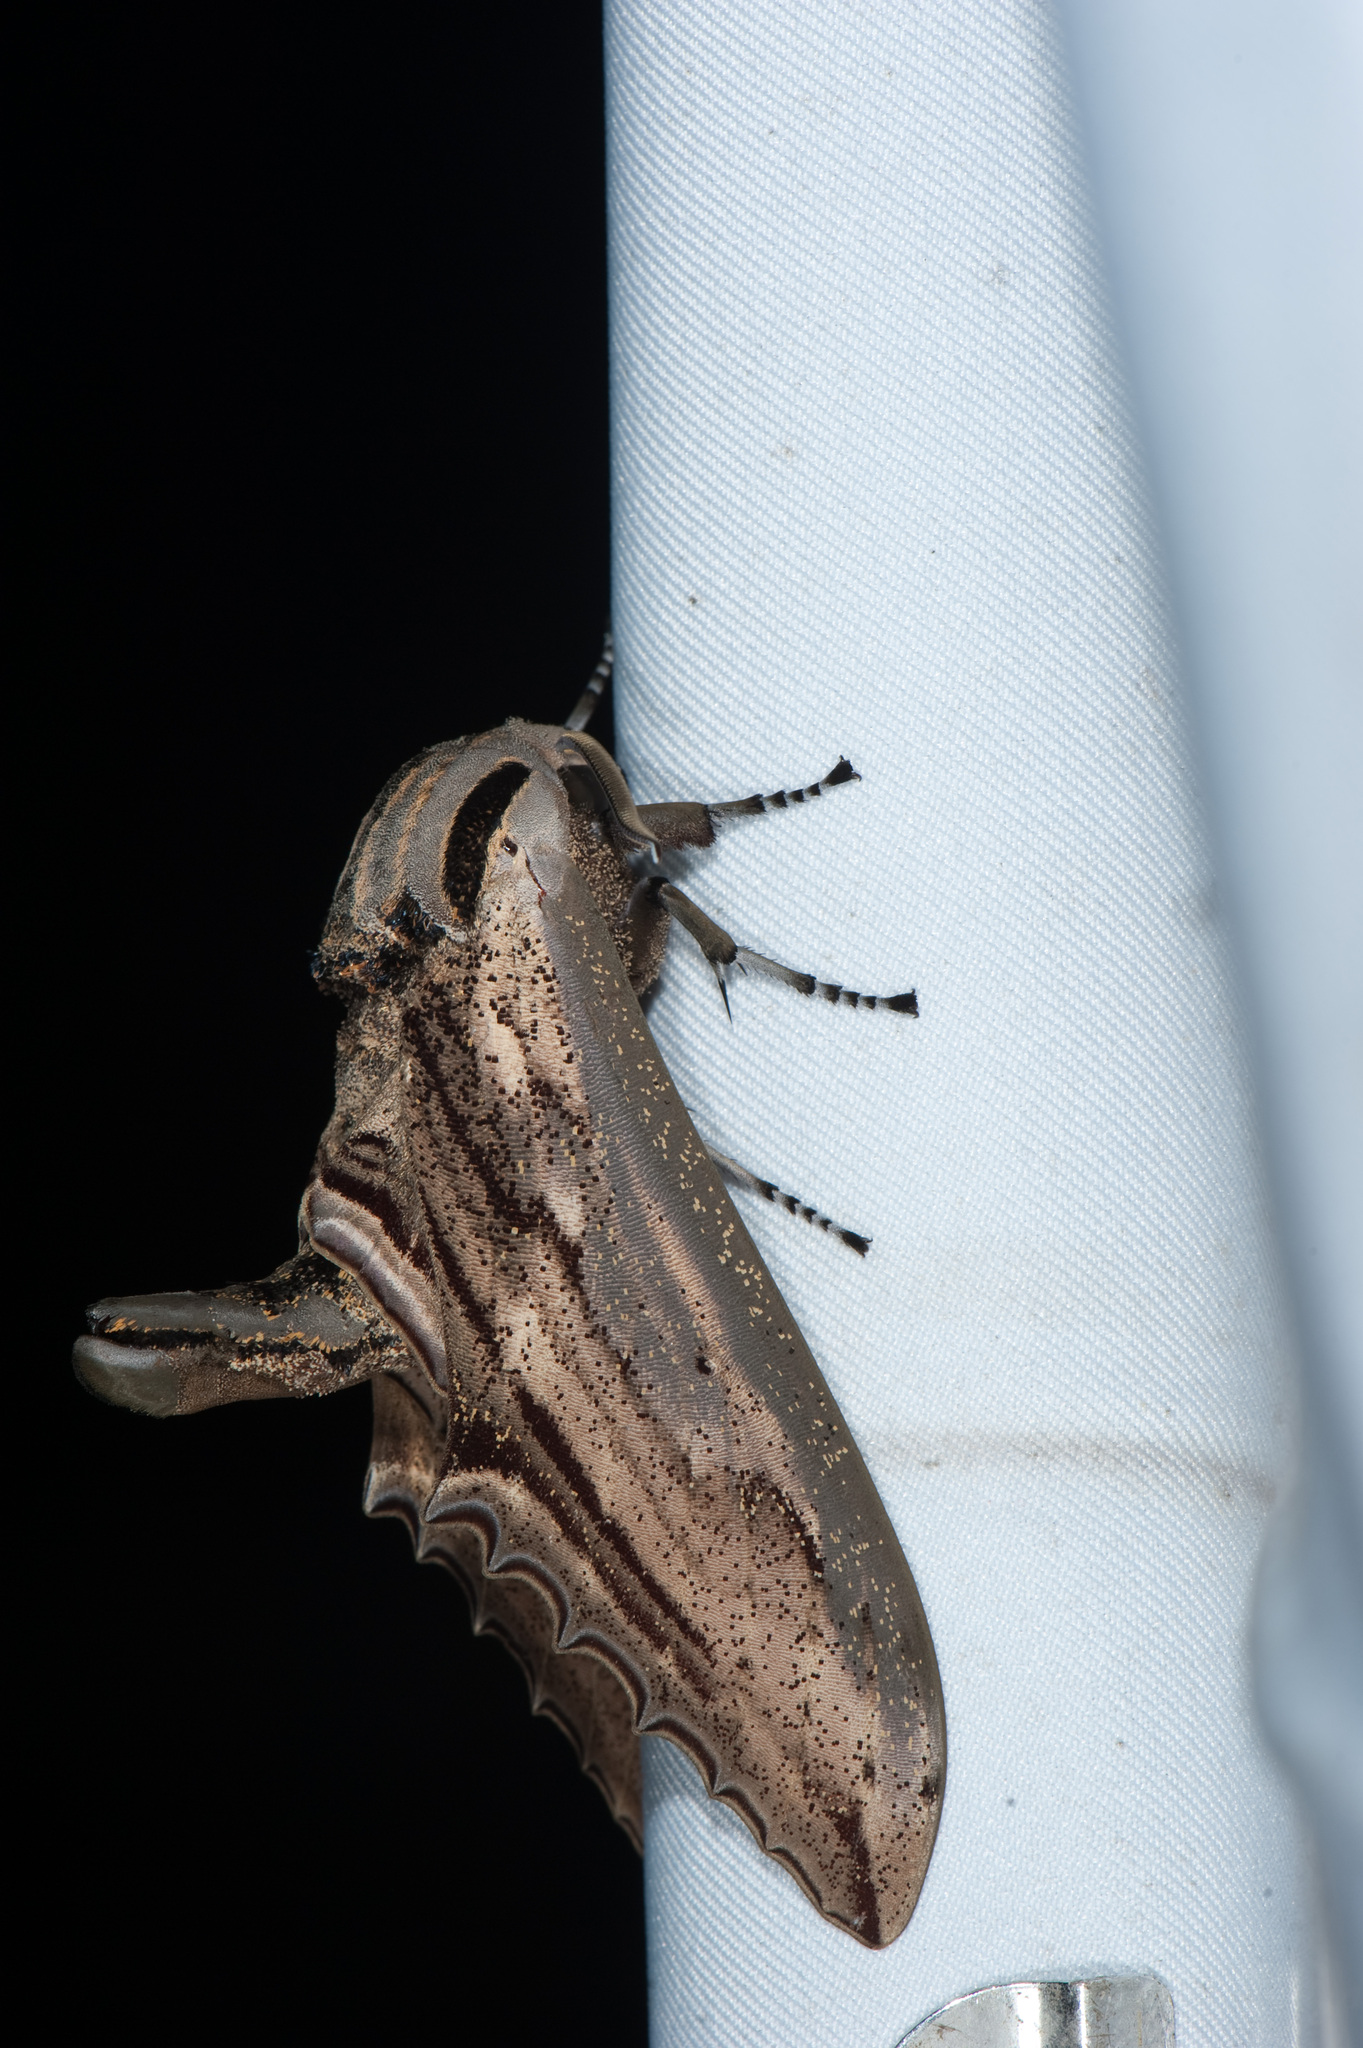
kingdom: Animalia
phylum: Arthropoda
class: Insecta
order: Lepidoptera
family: Sphingidae
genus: Langia
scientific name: Langia zenzeroides
